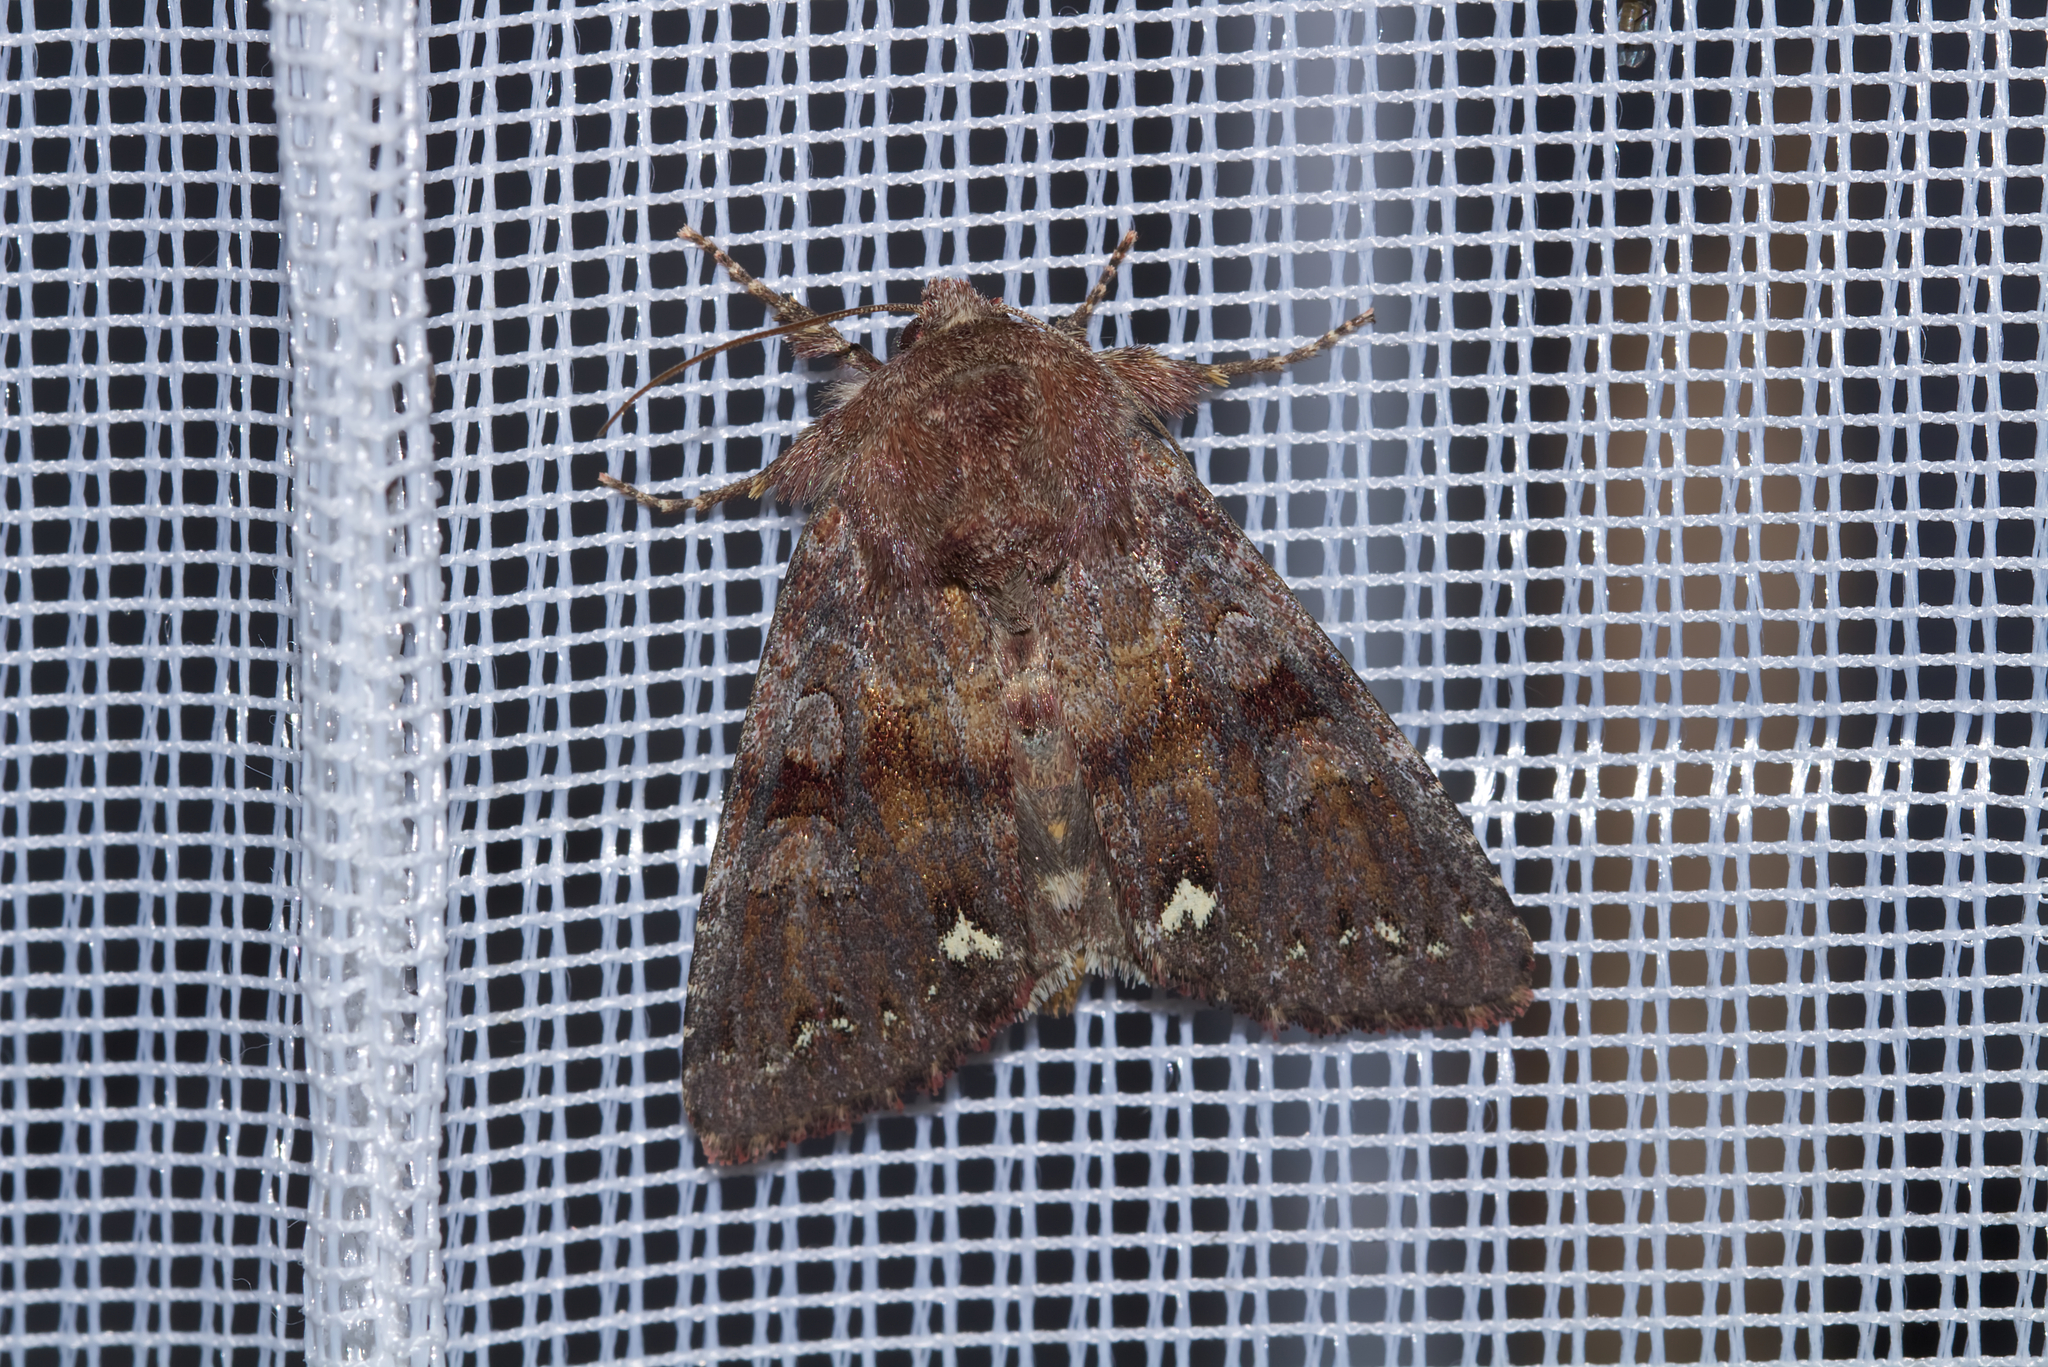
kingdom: Animalia
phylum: Arthropoda
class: Insecta
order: Lepidoptera
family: Noctuidae
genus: Ceramica
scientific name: Ceramica pisi
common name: Broom moth
